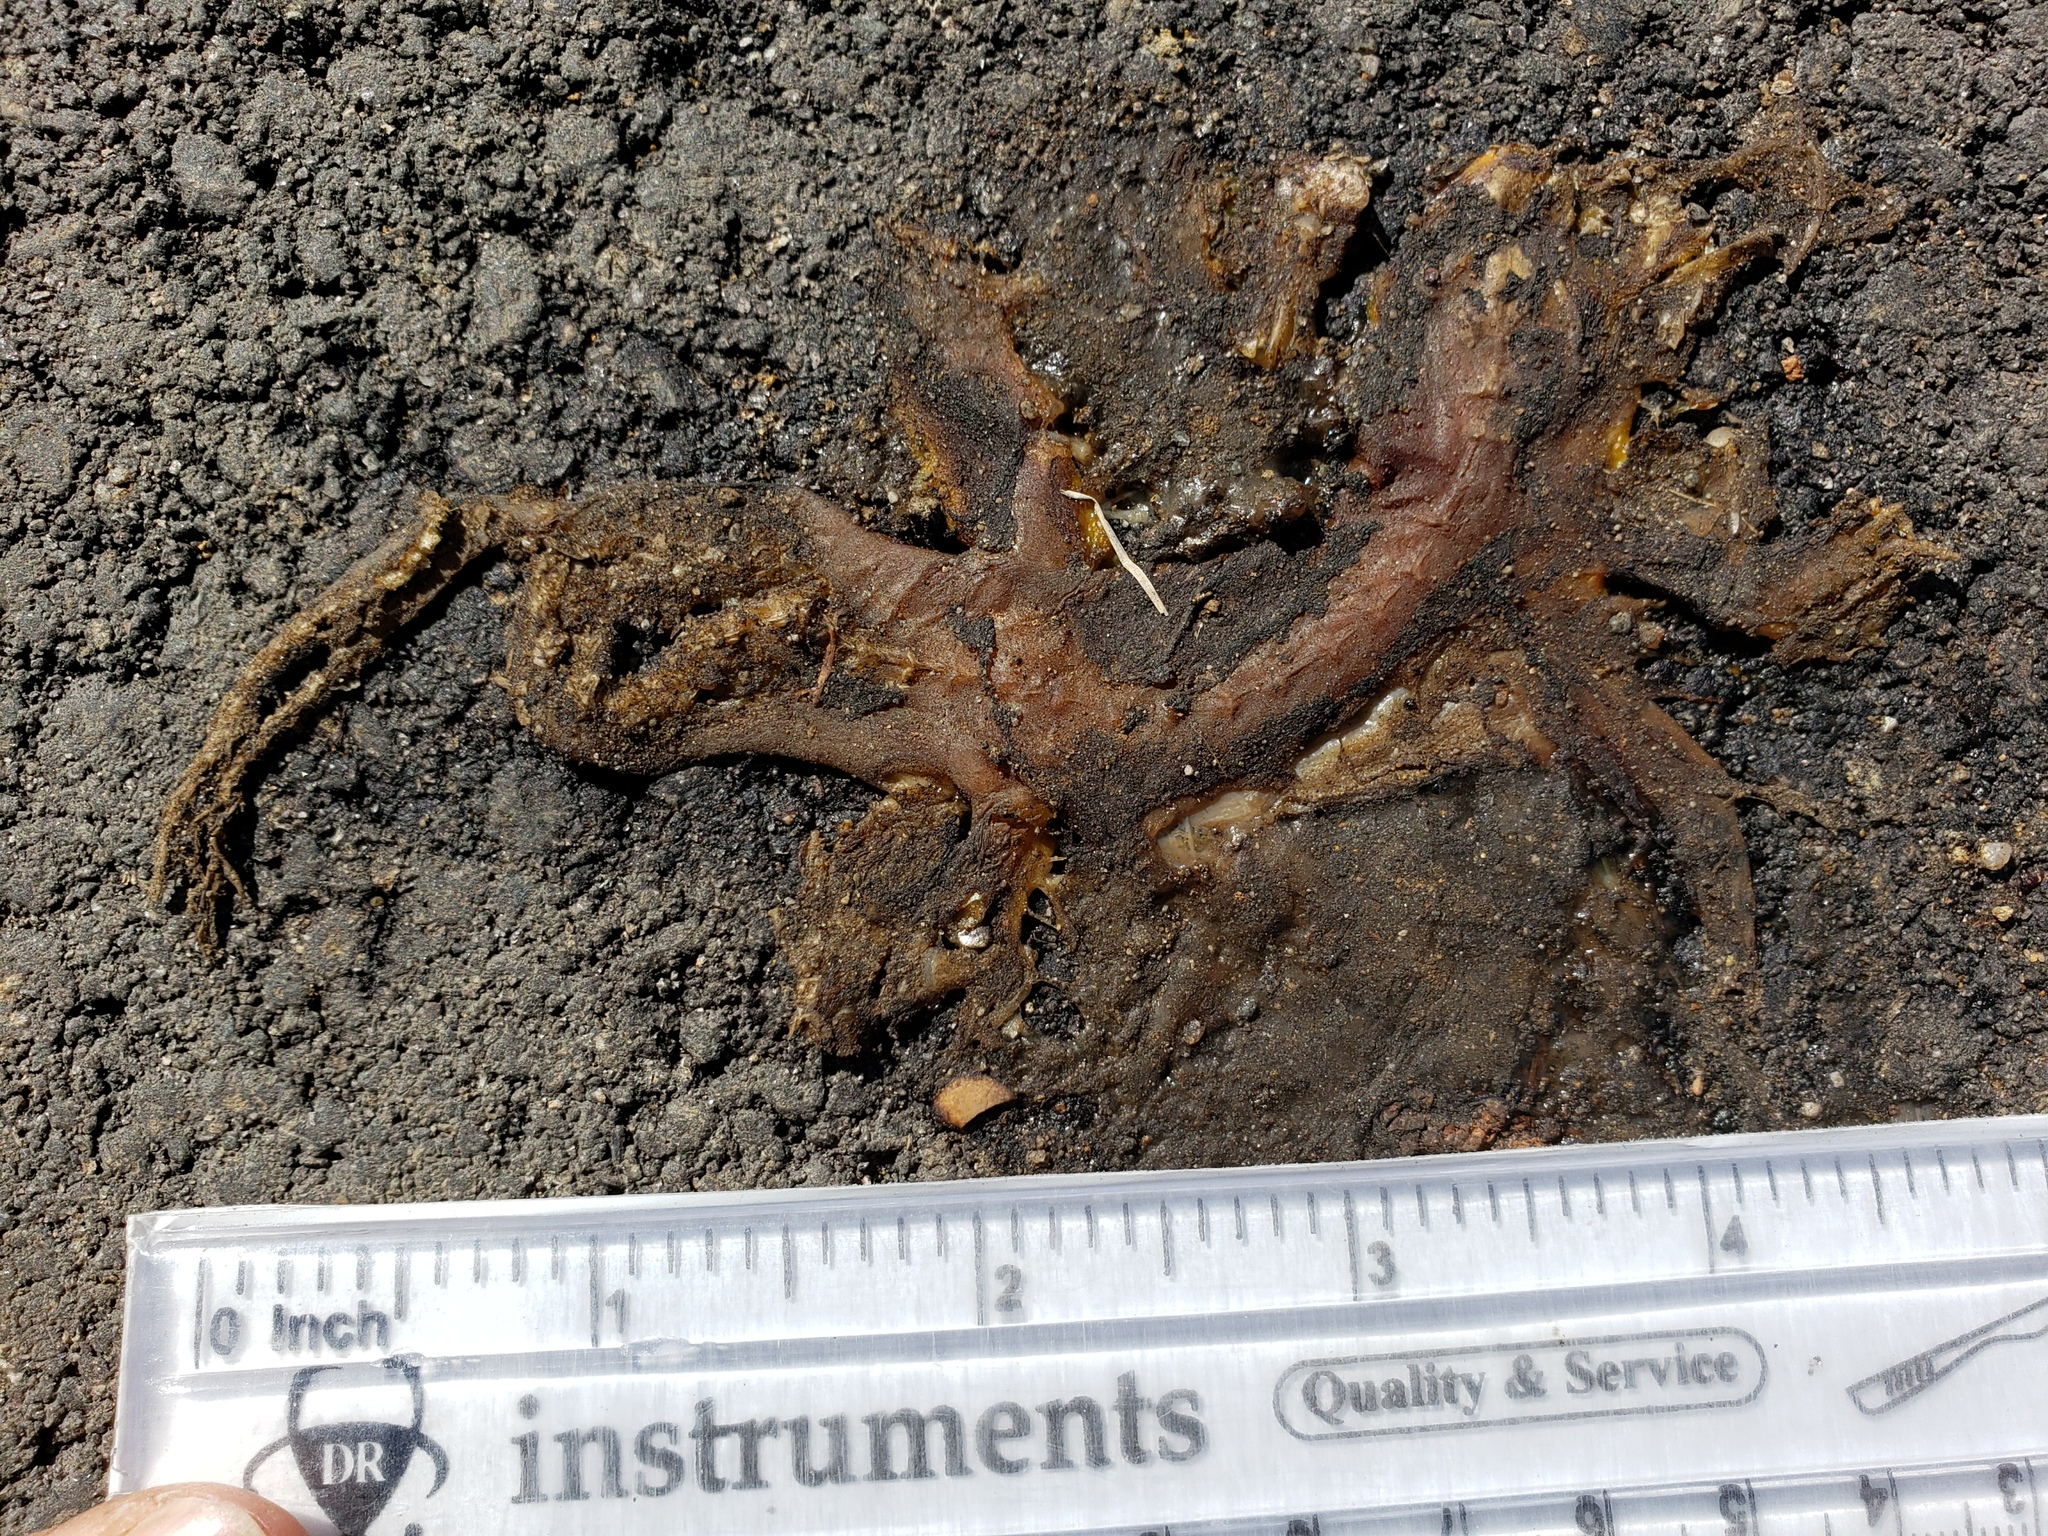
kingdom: Animalia
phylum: Chordata
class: Amphibia
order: Caudata
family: Salamandridae
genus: Taricha
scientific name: Taricha
